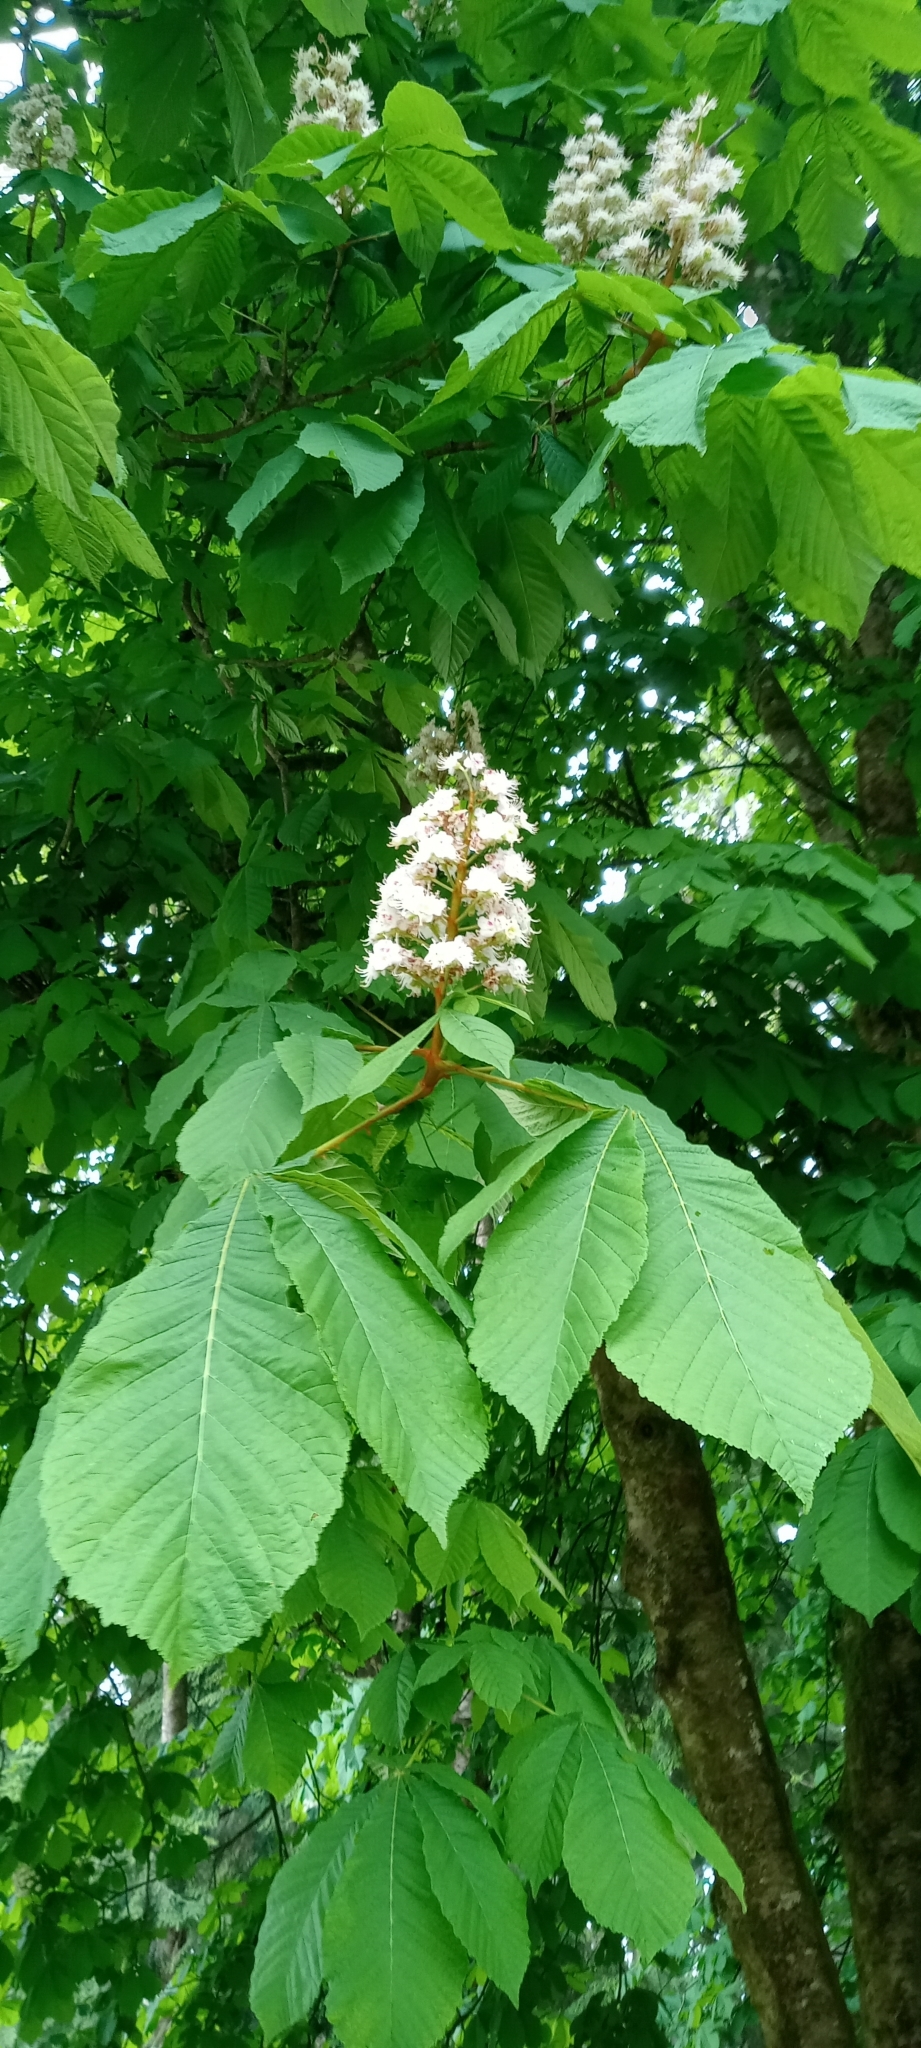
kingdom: Plantae
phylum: Tracheophyta
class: Magnoliopsida
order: Sapindales
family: Sapindaceae
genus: Aesculus
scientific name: Aesculus hippocastanum
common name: Horse-chestnut
